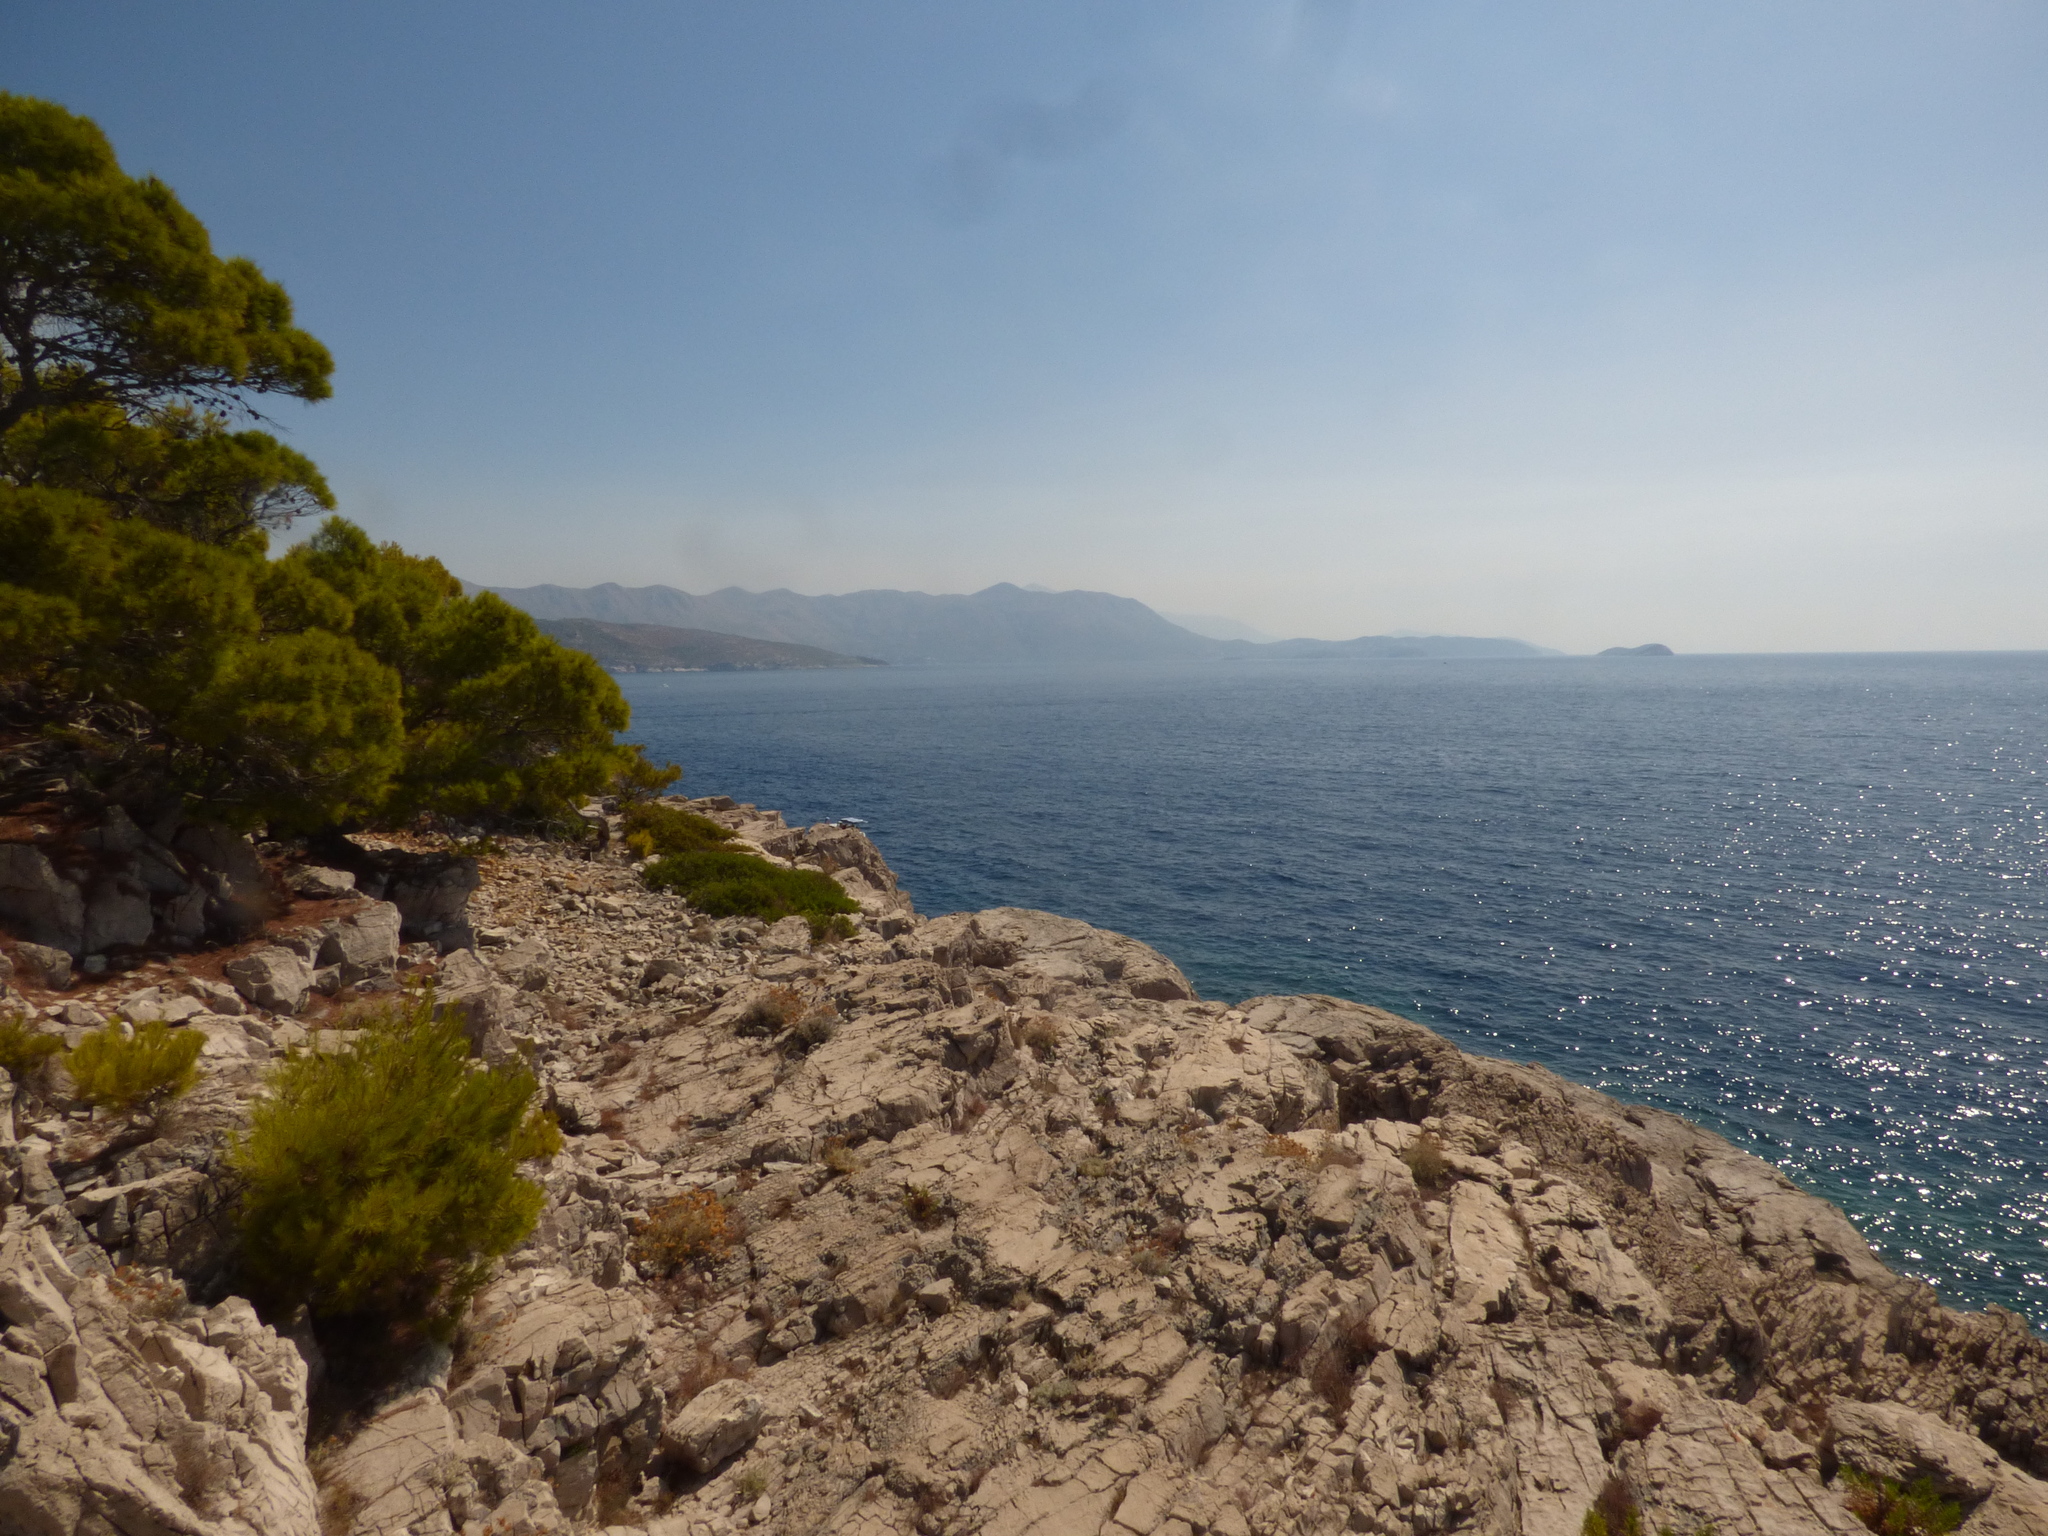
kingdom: Plantae
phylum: Tracheophyta
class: Pinopsida
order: Pinales
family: Pinaceae
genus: Pinus
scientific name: Pinus halepensis
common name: Aleppo pine
